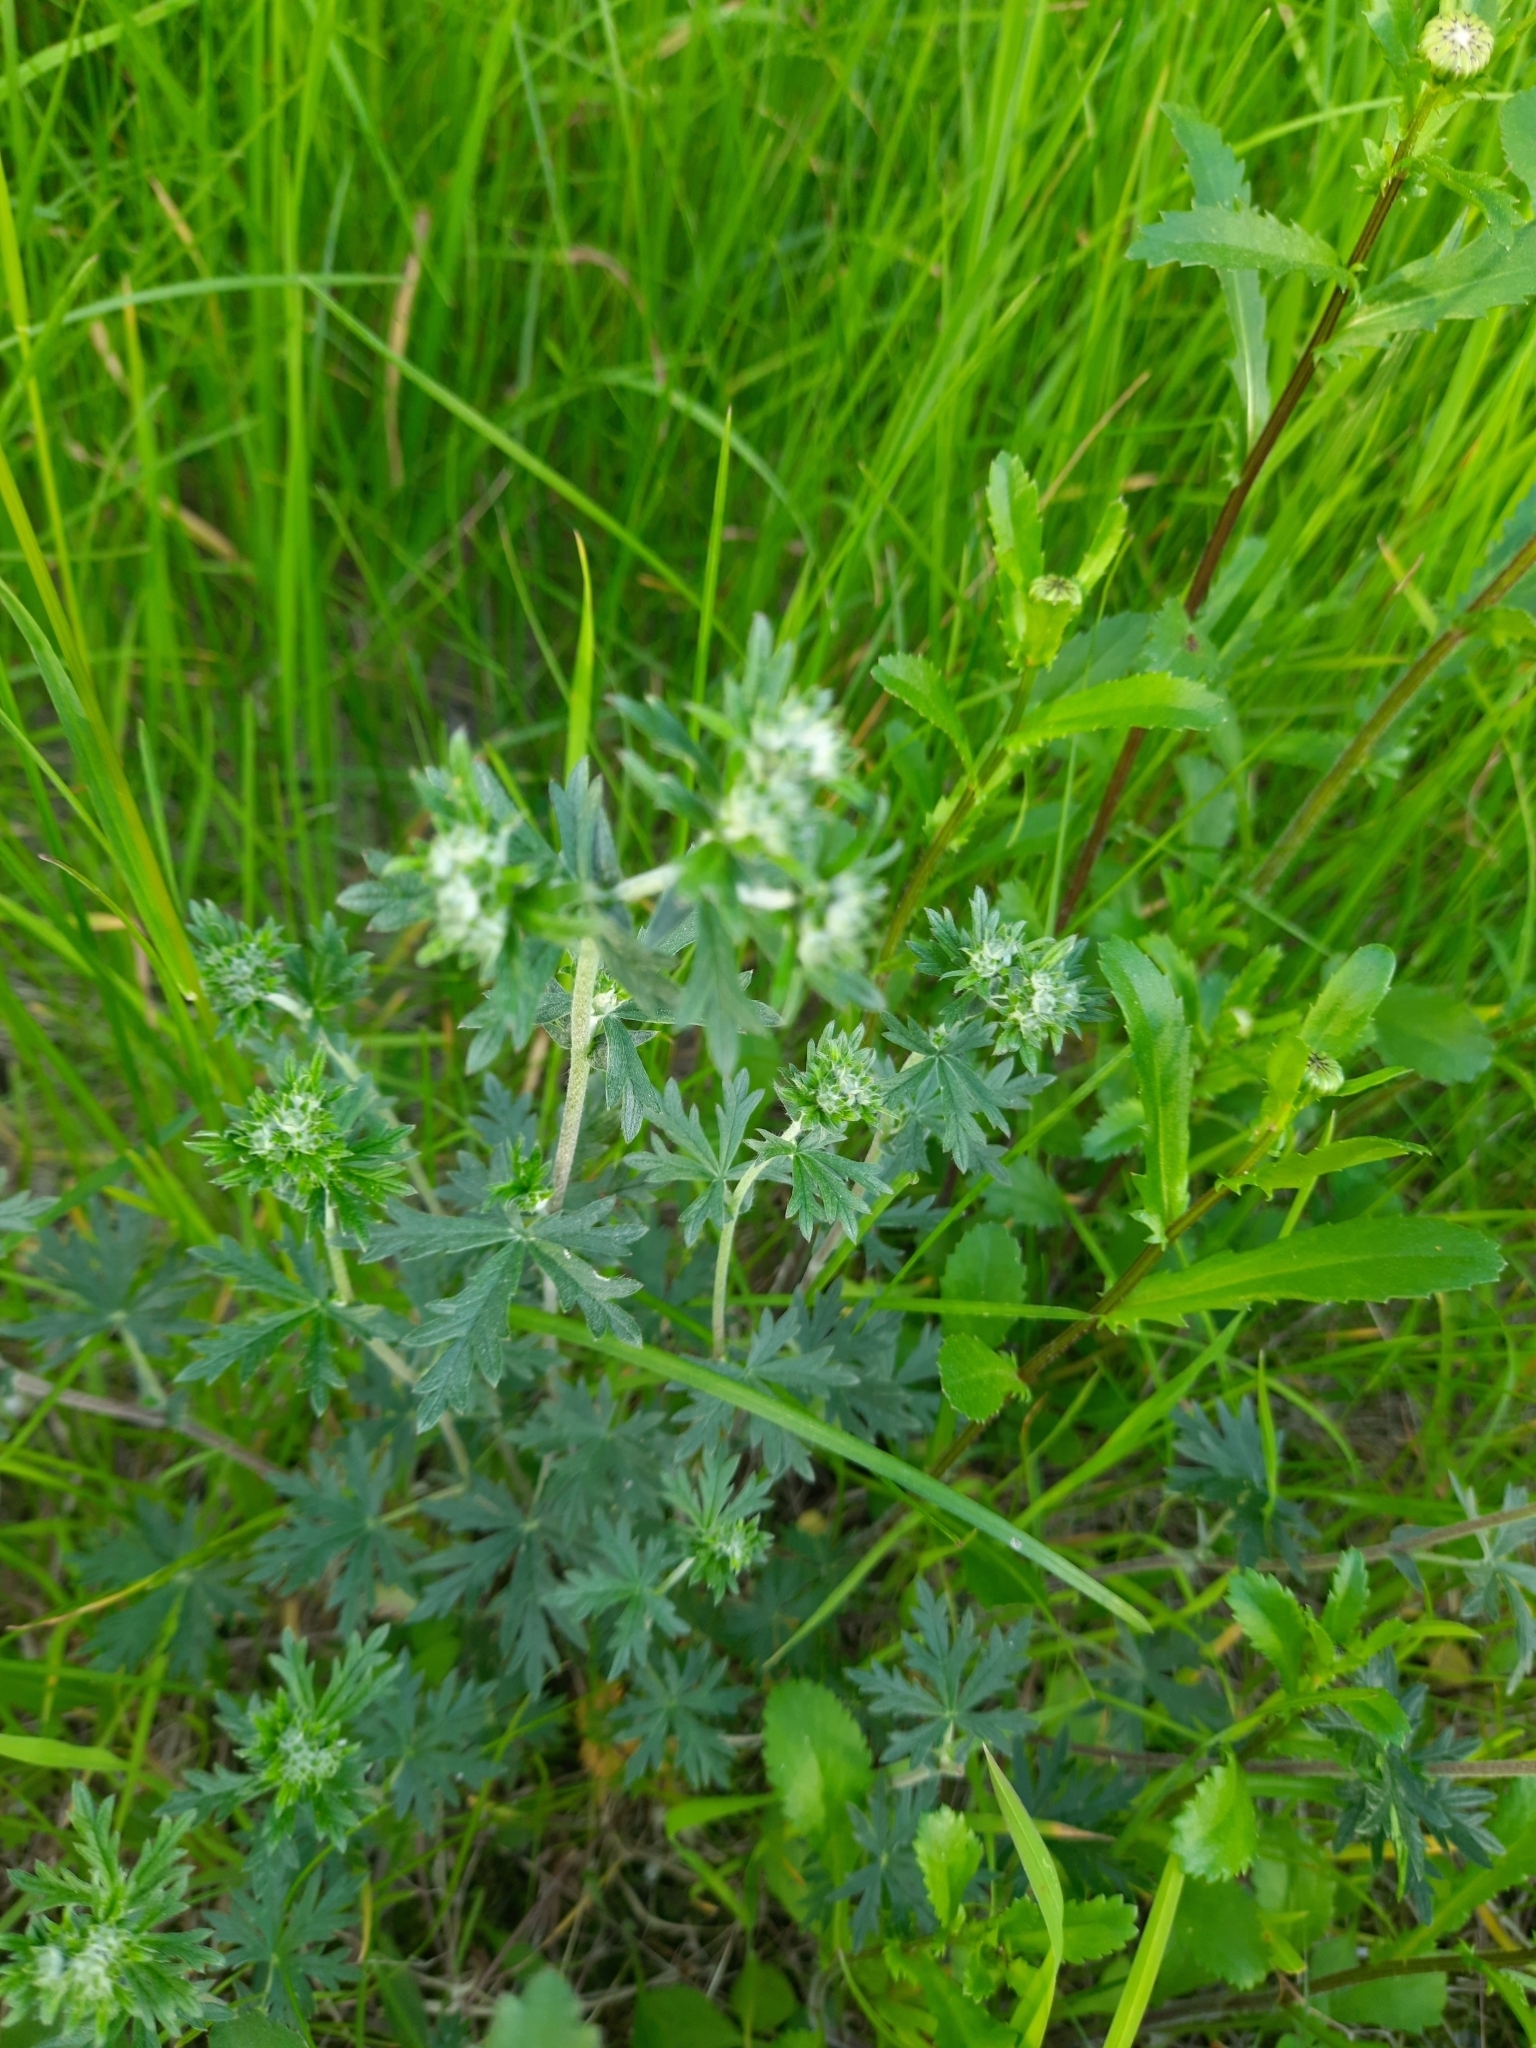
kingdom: Plantae
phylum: Tracheophyta
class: Magnoliopsida
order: Rosales
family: Rosaceae
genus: Potentilla
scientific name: Potentilla argentea
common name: Hoary cinquefoil
